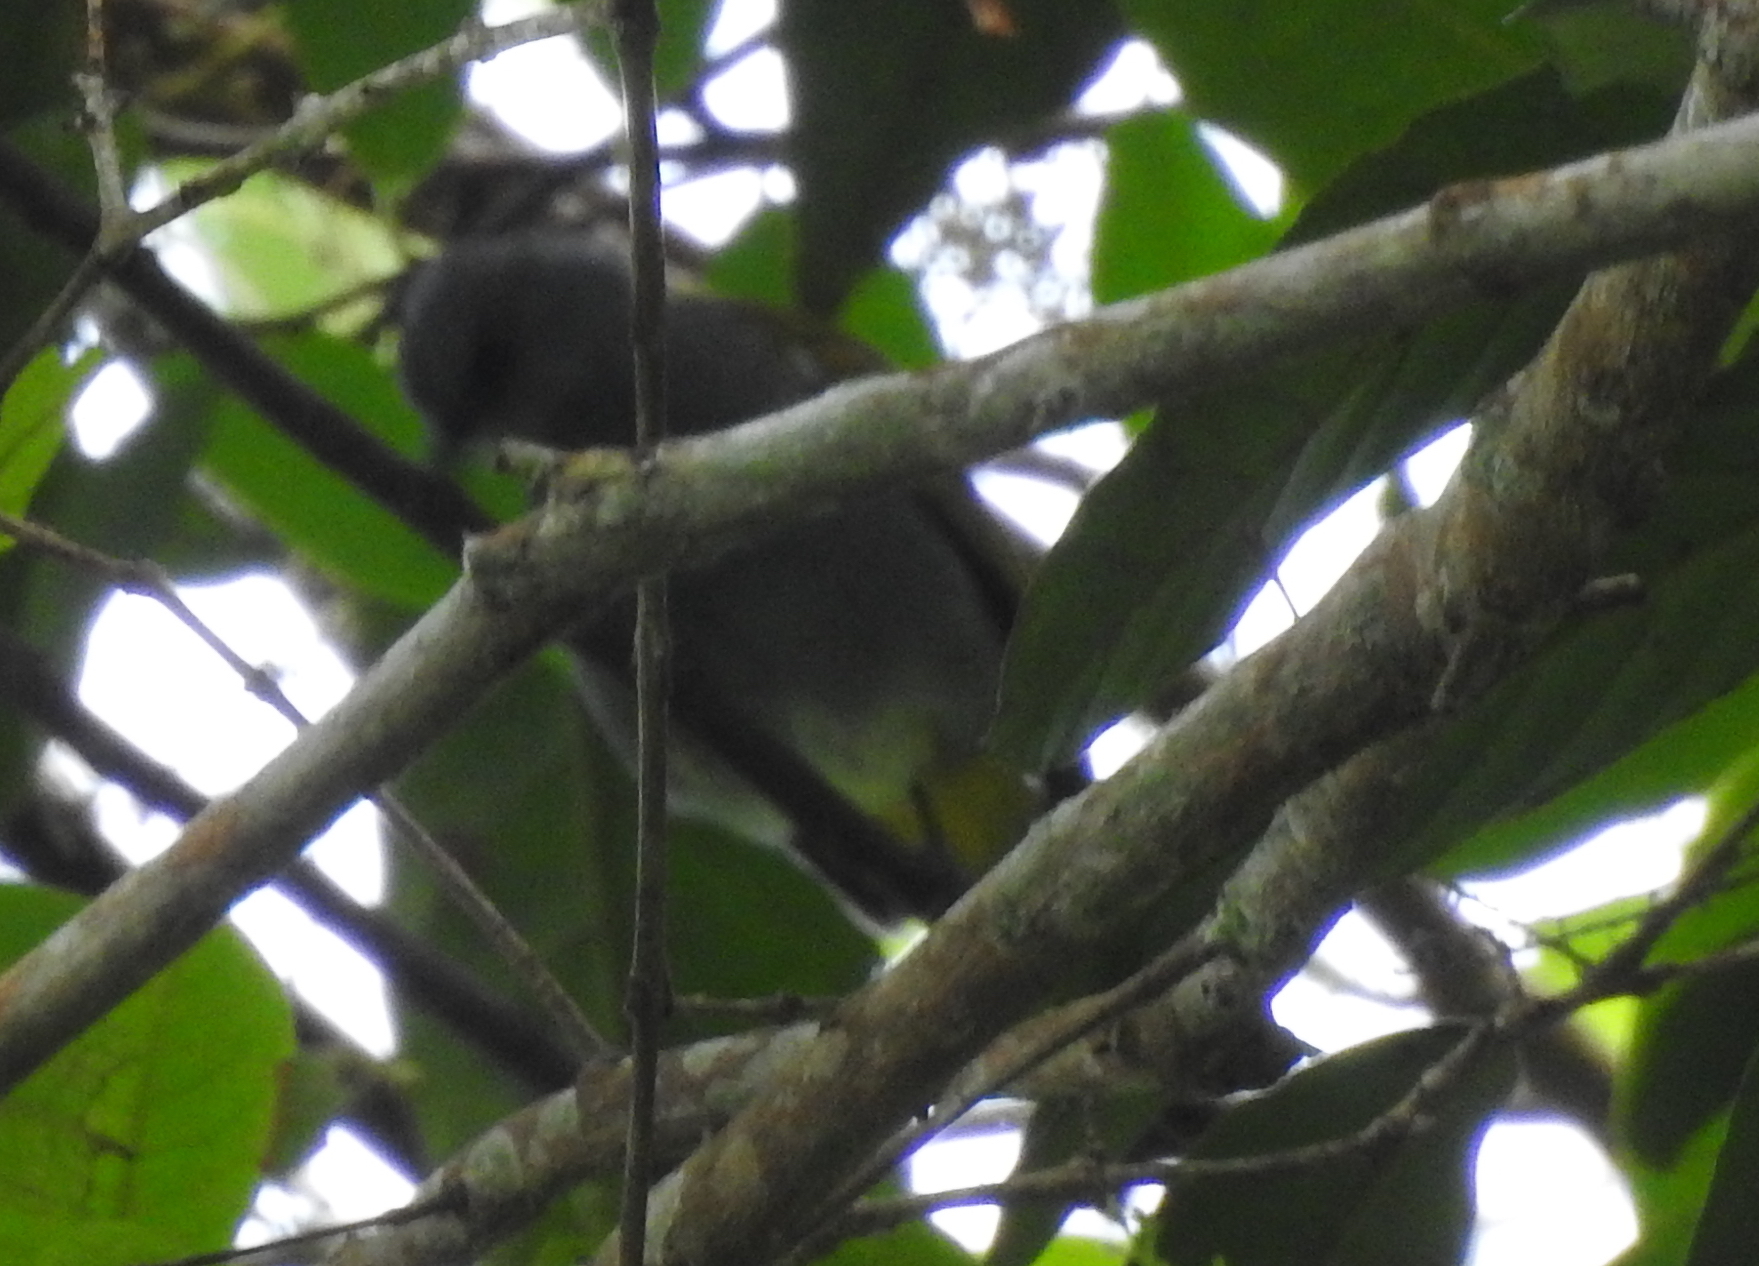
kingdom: Animalia
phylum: Chordata
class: Aves
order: Passeriformes
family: Pycnonotidae
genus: Rubigula
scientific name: Rubigula cyaniventris
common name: Gray-bellied bulbul
